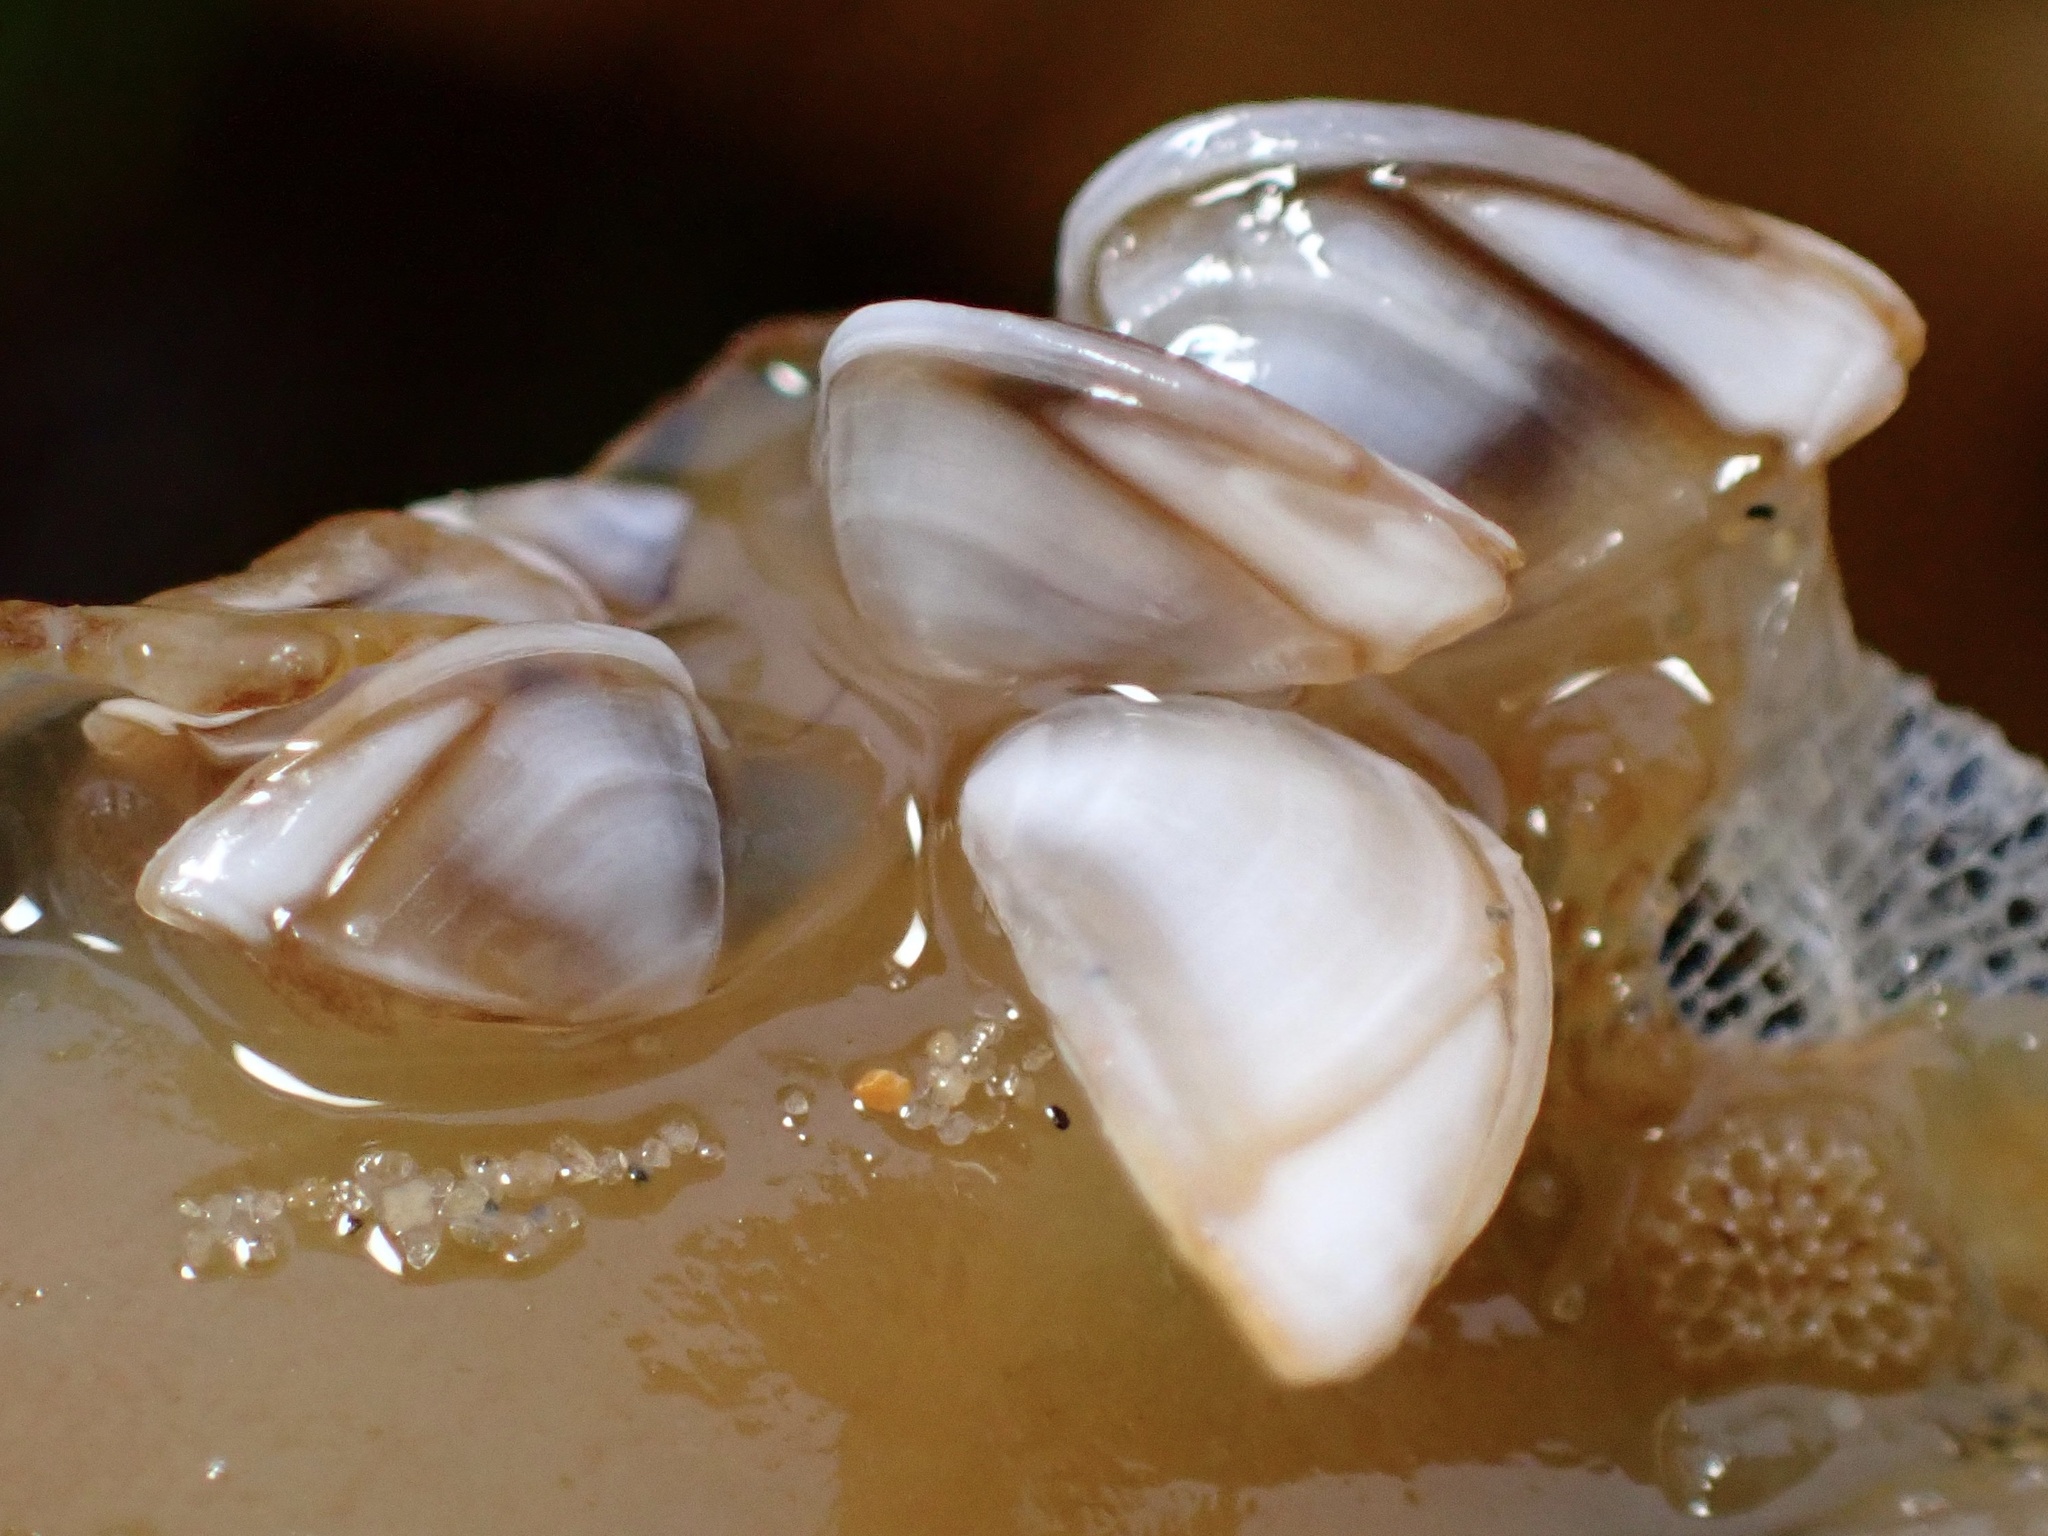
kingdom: Animalia
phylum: Arthropoda
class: Maxillopoda
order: Pedunculata
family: Lepadidae
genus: Lepas
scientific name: Lepas pacifica
